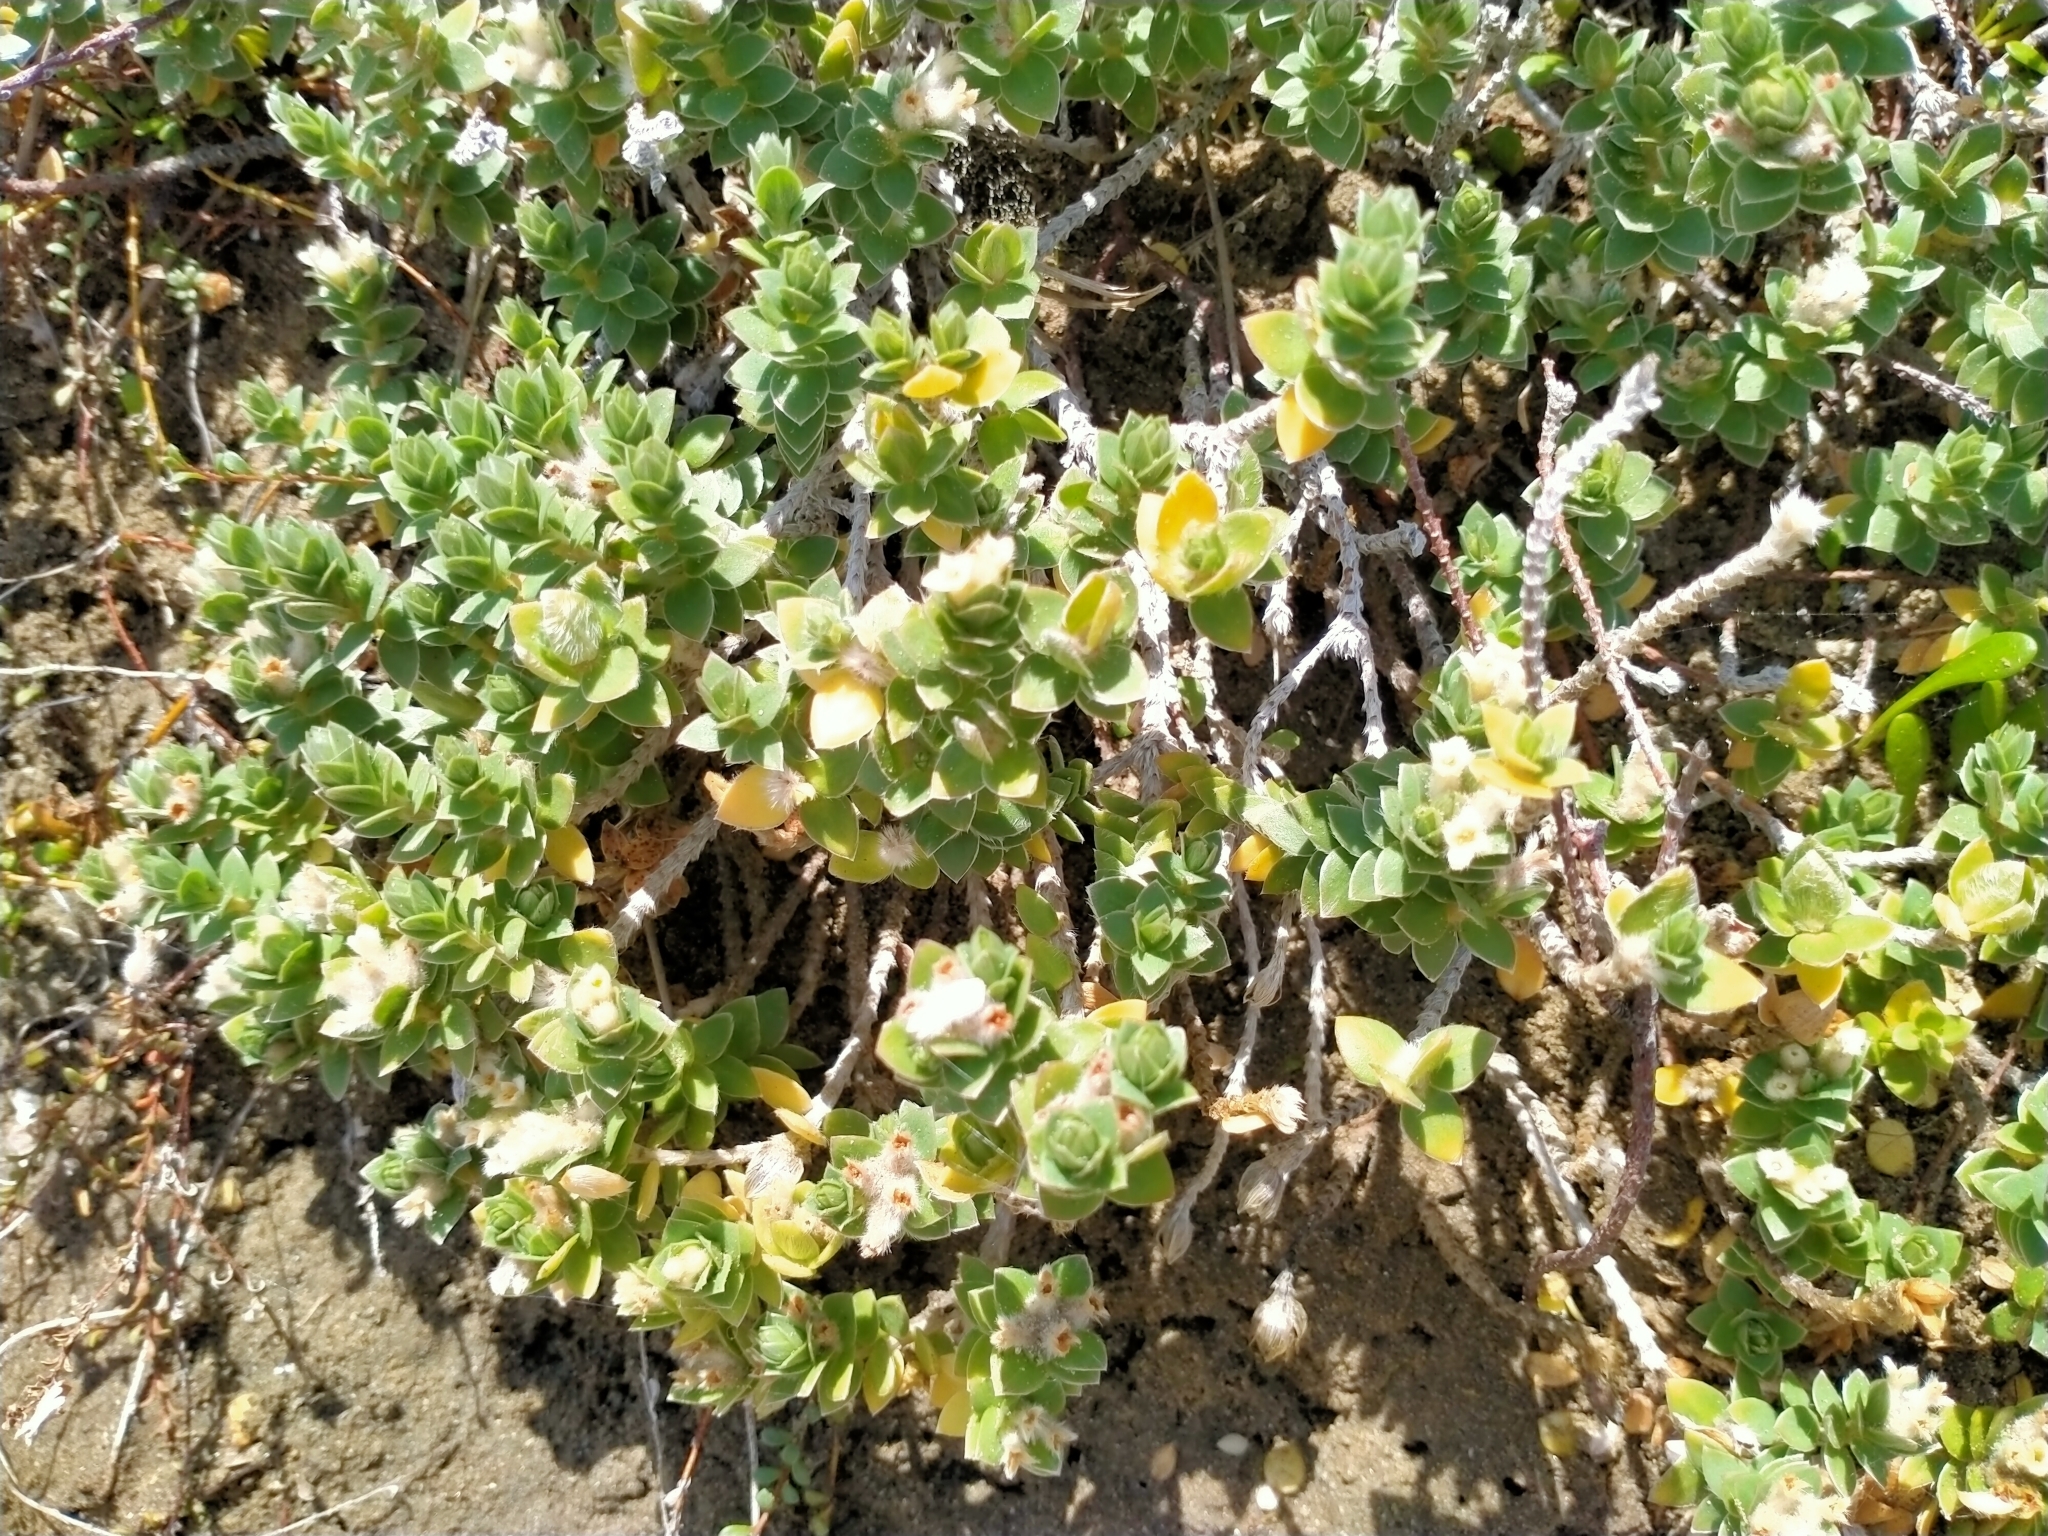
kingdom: Plantae
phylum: Tracheophyta
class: Magnoliopsida
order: Malvales
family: Thymelaeaceae
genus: Pimelea
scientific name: Pimelea villosa
